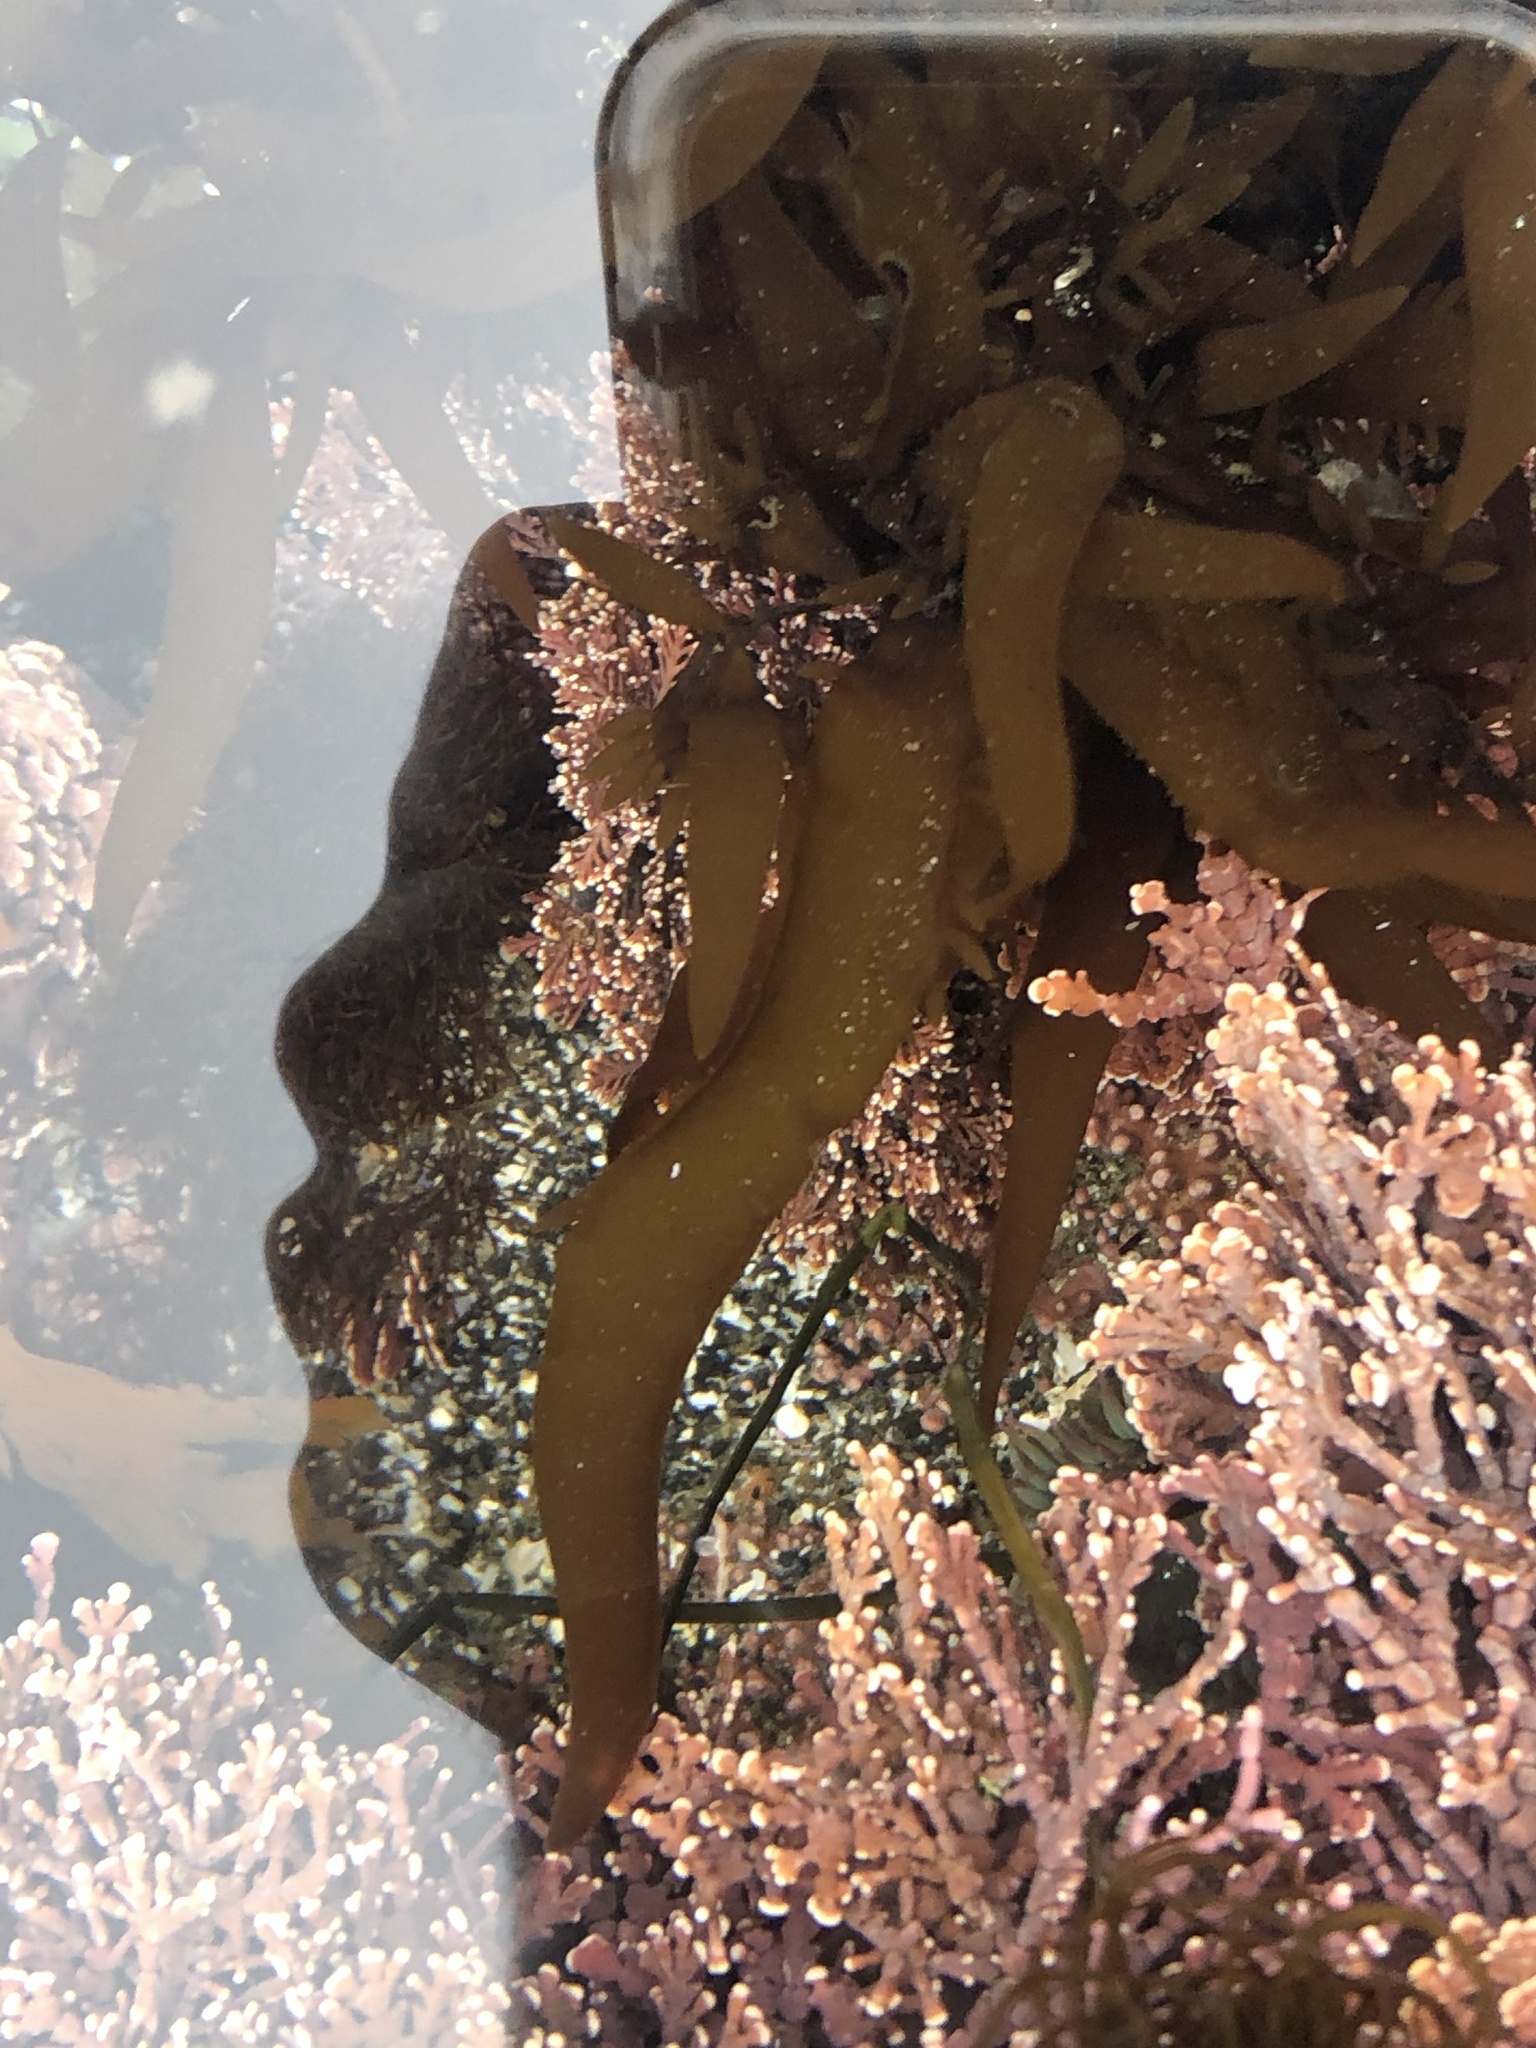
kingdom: Plantae
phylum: Rhodophyta
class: Florideophyceae
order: Halymeniales
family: Halymeniaceae
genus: Grateloupia
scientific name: Grateloupia Prionitis lanceolata
